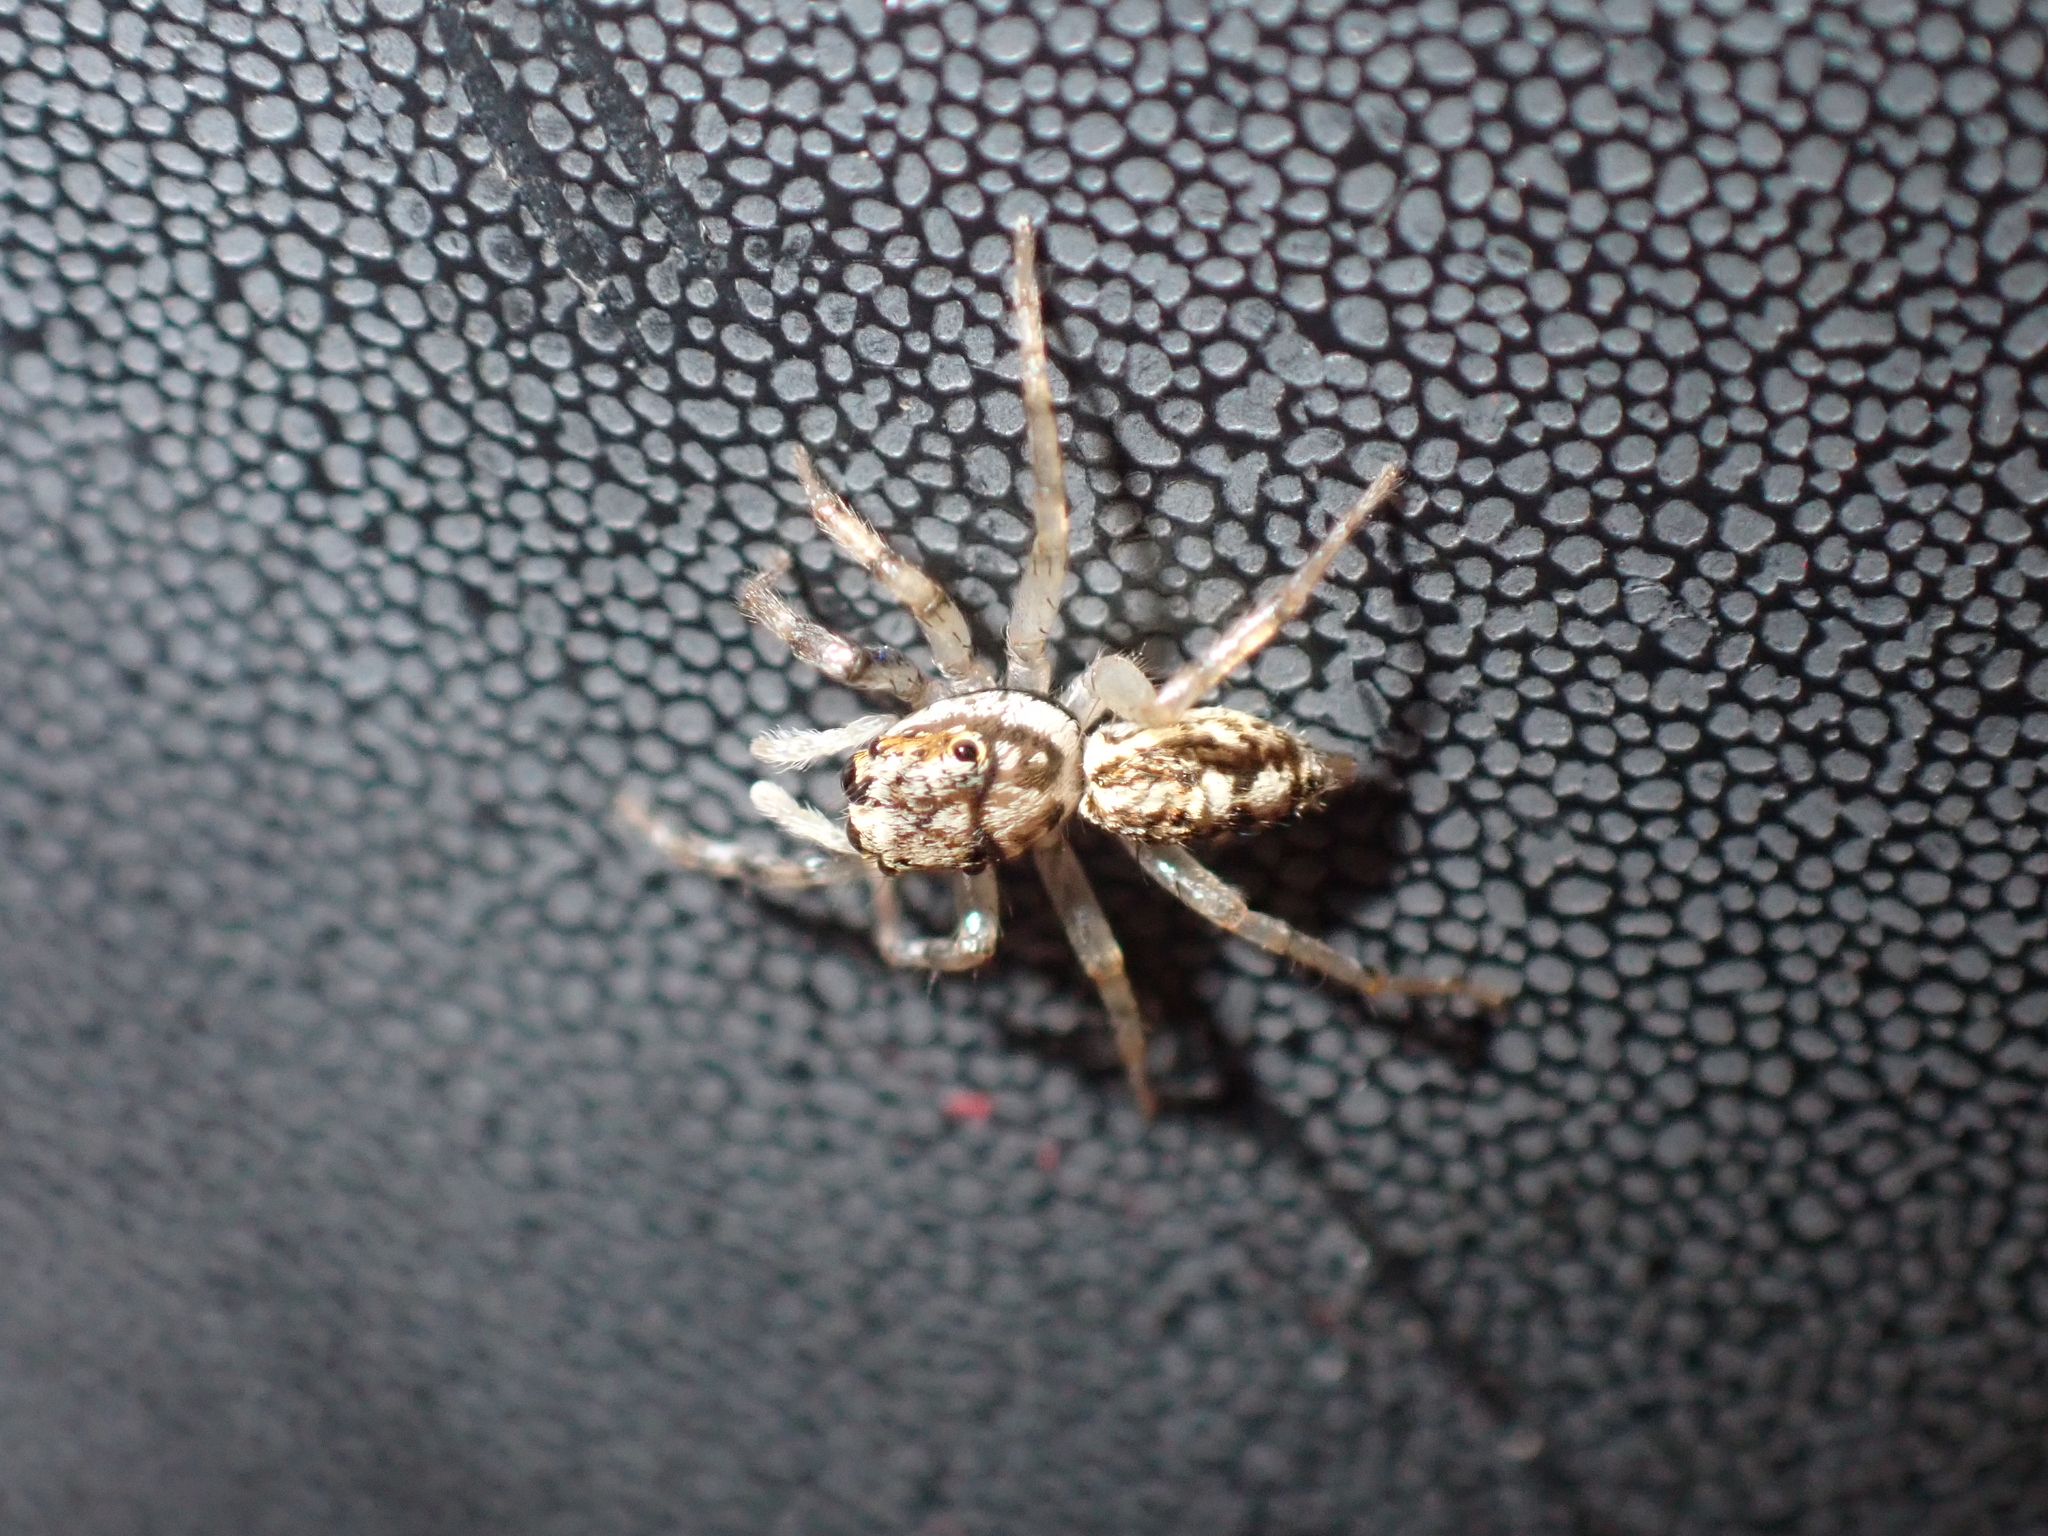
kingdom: Animalia
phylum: Arthropoda
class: Arachnida
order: Araneae
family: Salticidae
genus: Phintelloides
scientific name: Phintelloides versicolor
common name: Jumping spider
